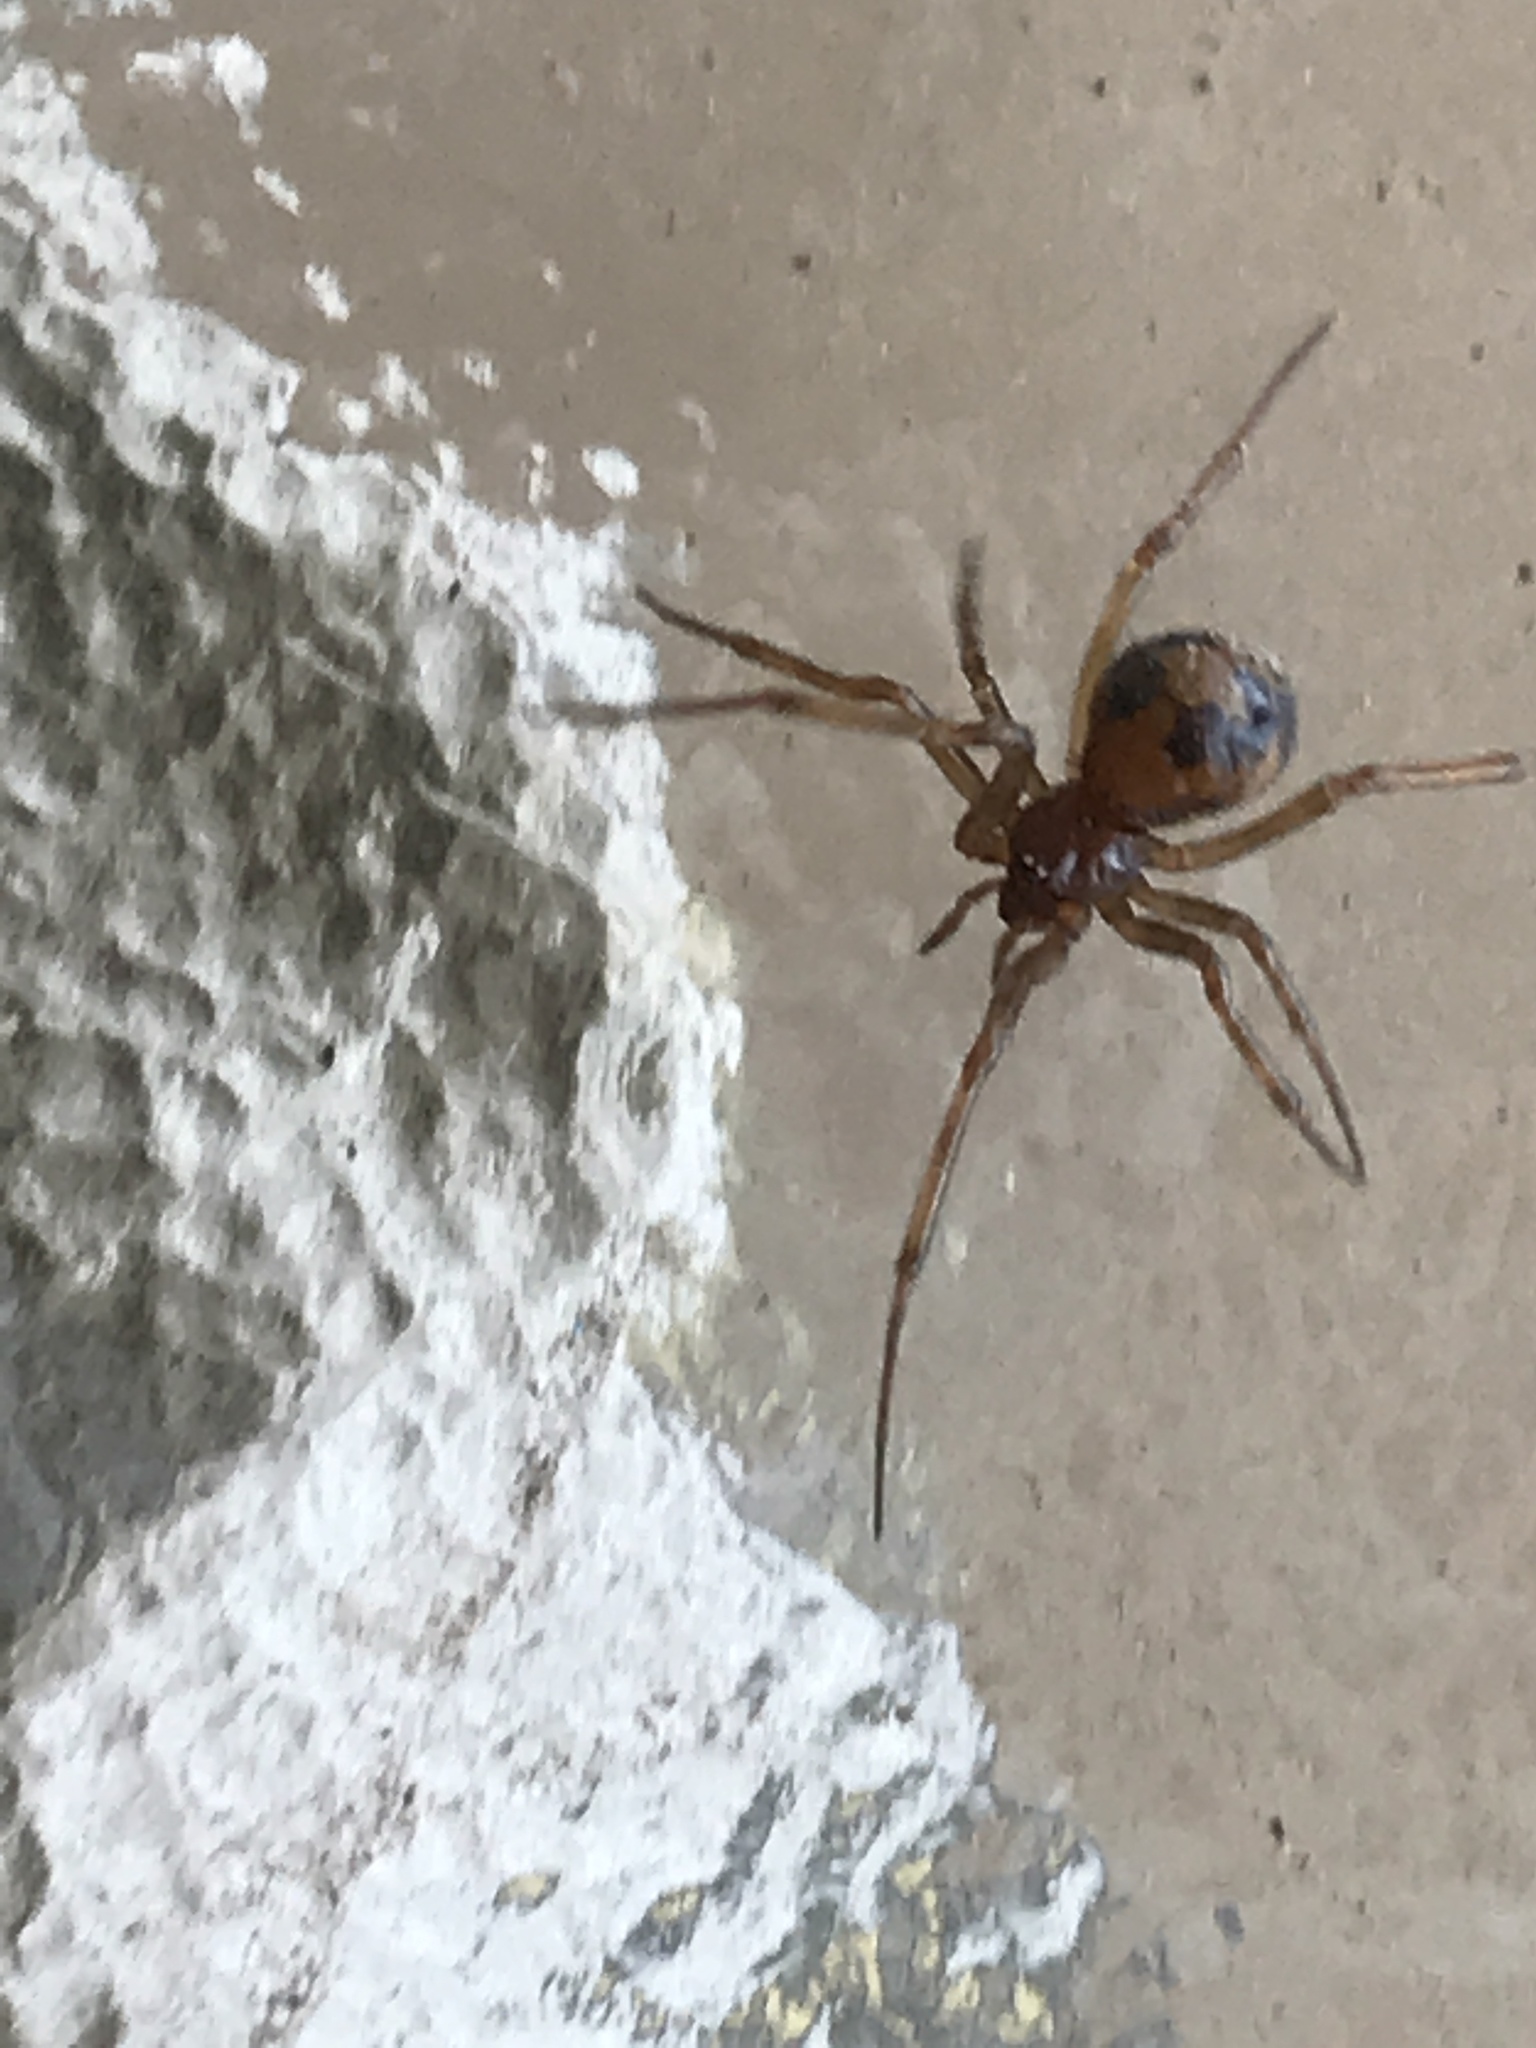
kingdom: Animalia
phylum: Arthropoda
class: Arachnida
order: Araneae
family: Theridiidae
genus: Steatoda
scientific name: Steatoda triangulosa
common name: Triangulate bud spider
